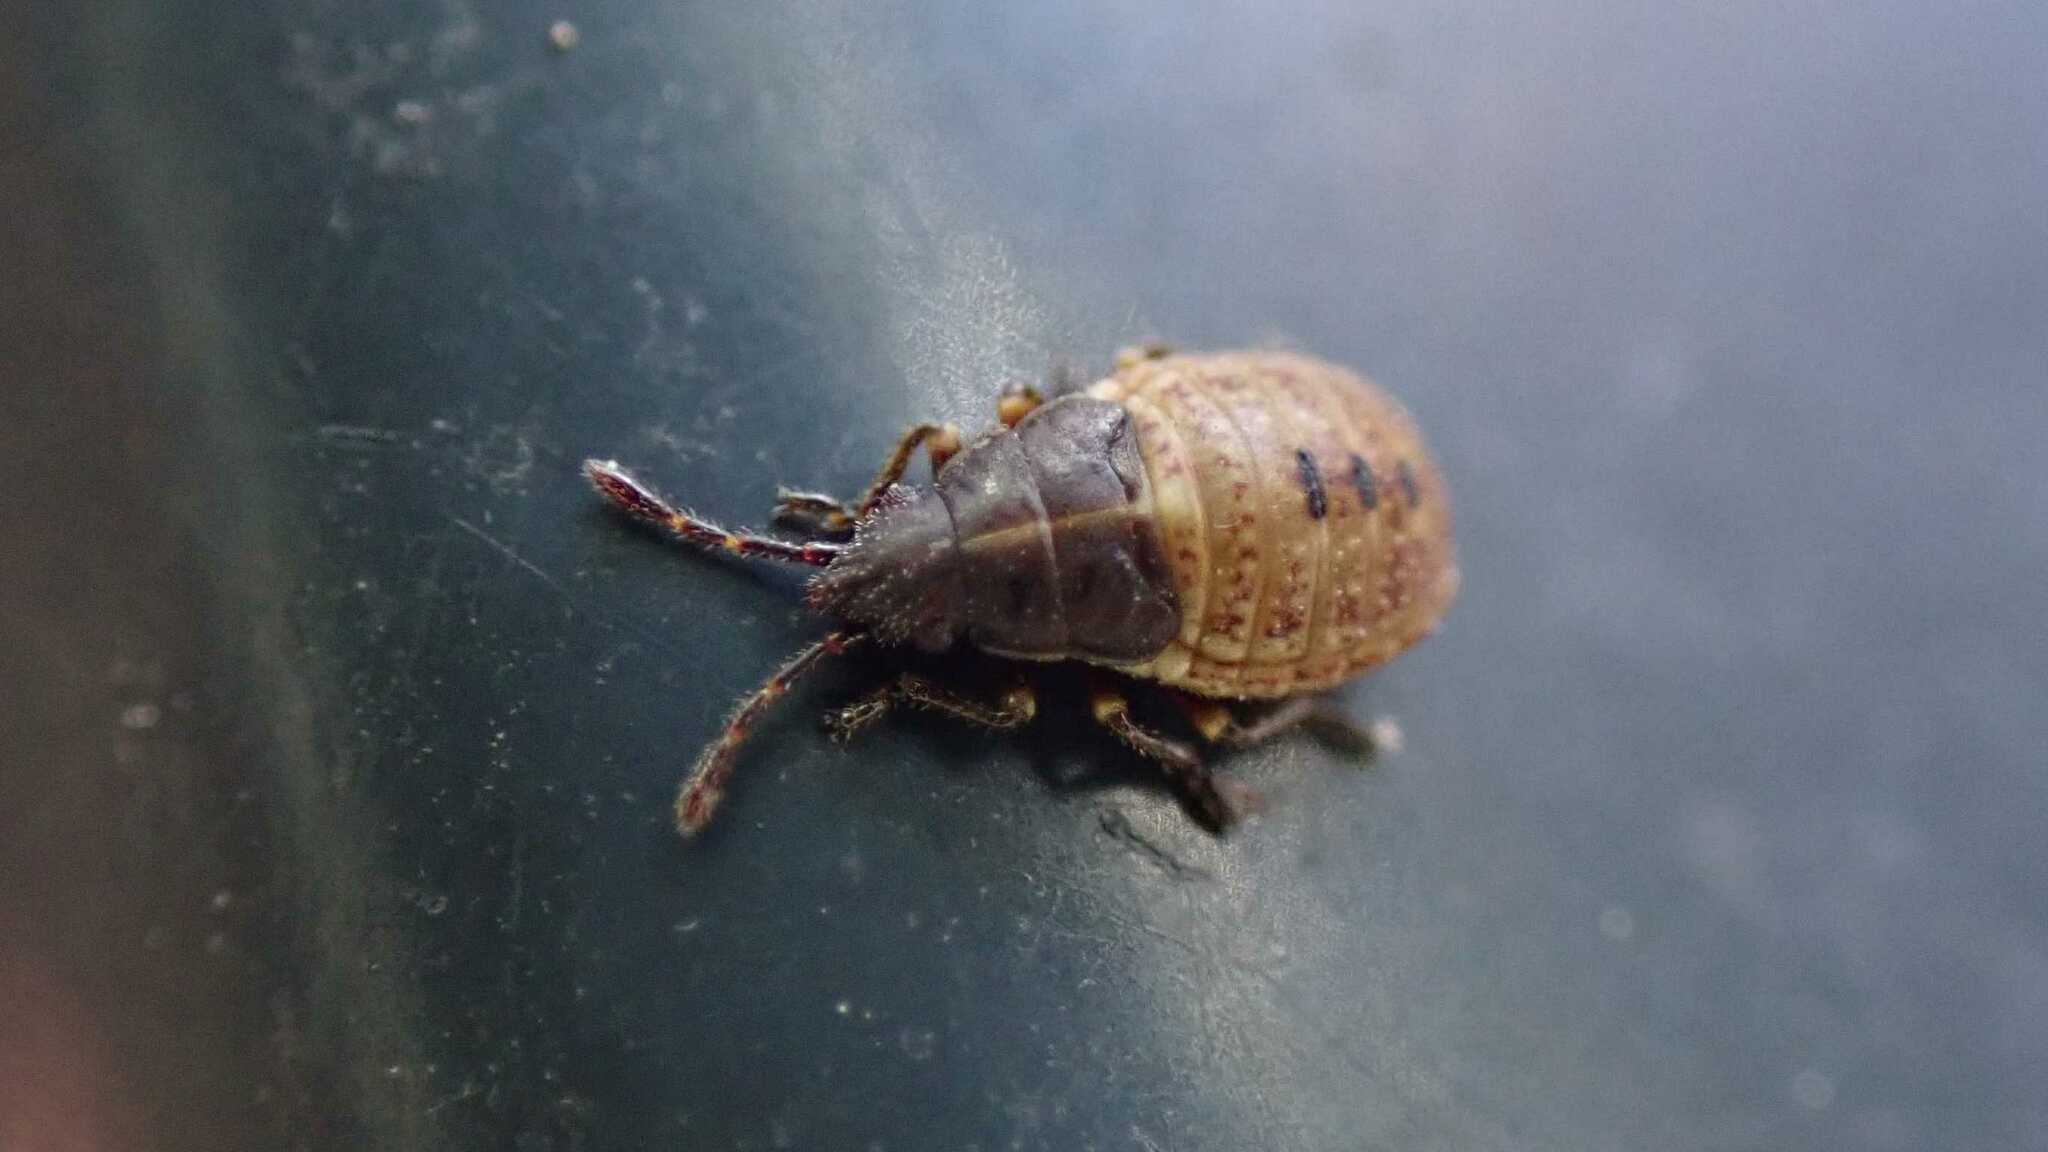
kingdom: Animalia
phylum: Arthropoda
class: Insecta
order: Hemiptera
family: Lygaeidae
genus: Kleidocerys
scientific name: Kleidocerys resedae
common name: Birch catkin bug
